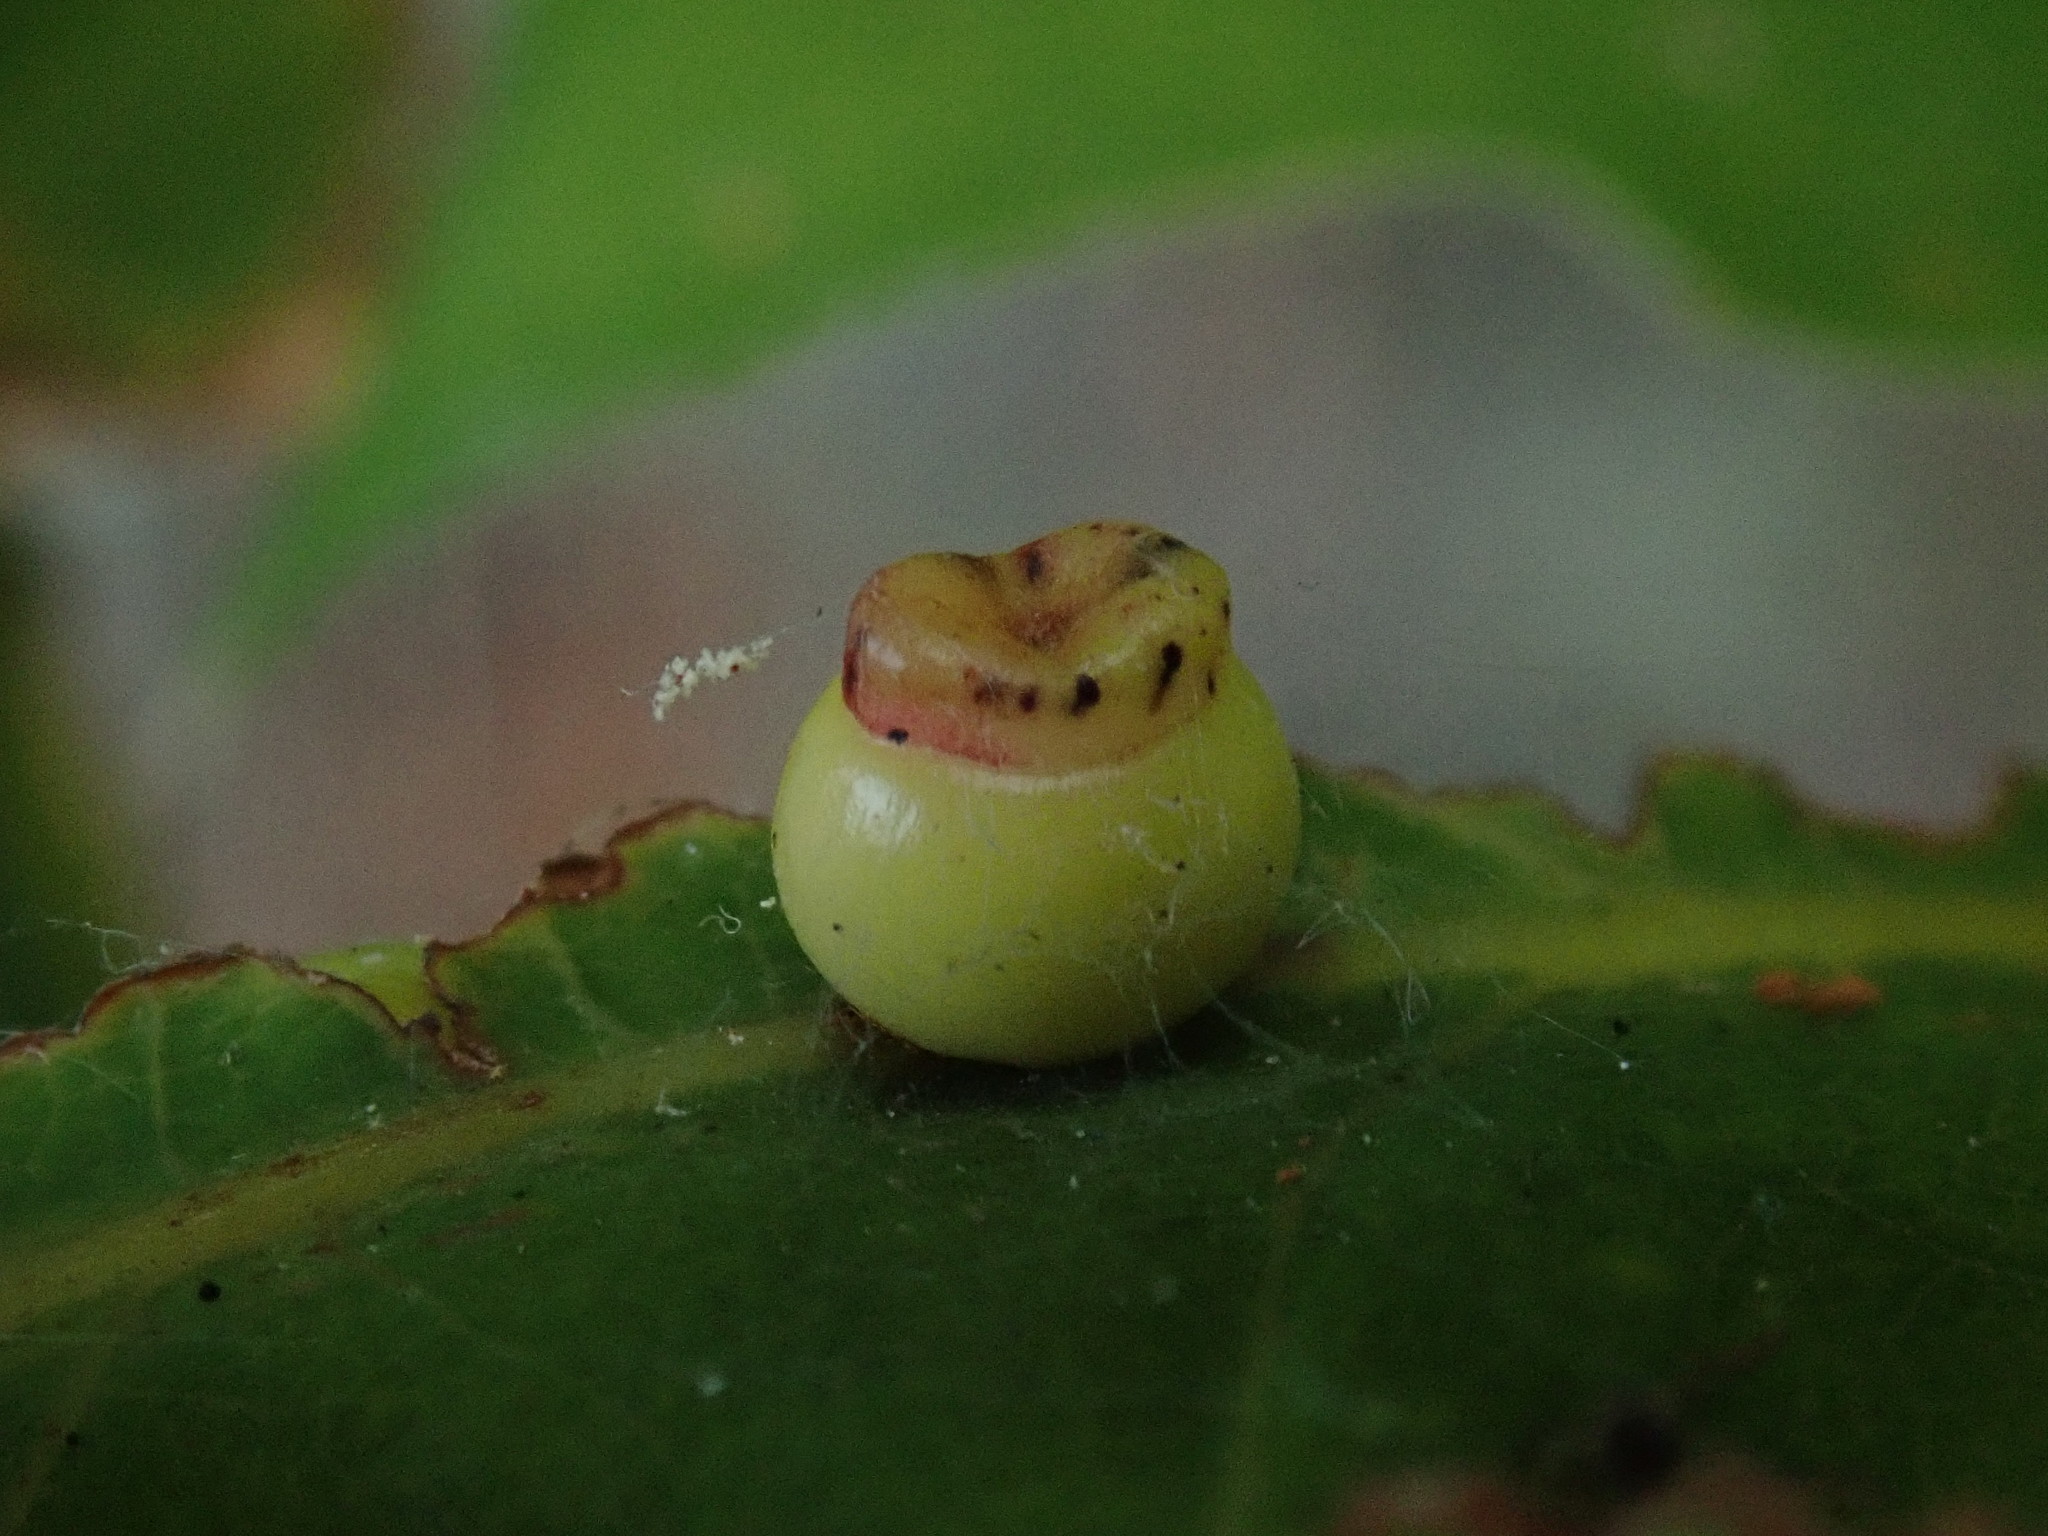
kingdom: Animalia
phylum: Arthropoda
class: Insecta
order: Hymenoptera
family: Cynipidae
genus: Kokkocynips
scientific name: Kokkocynips rileyi
